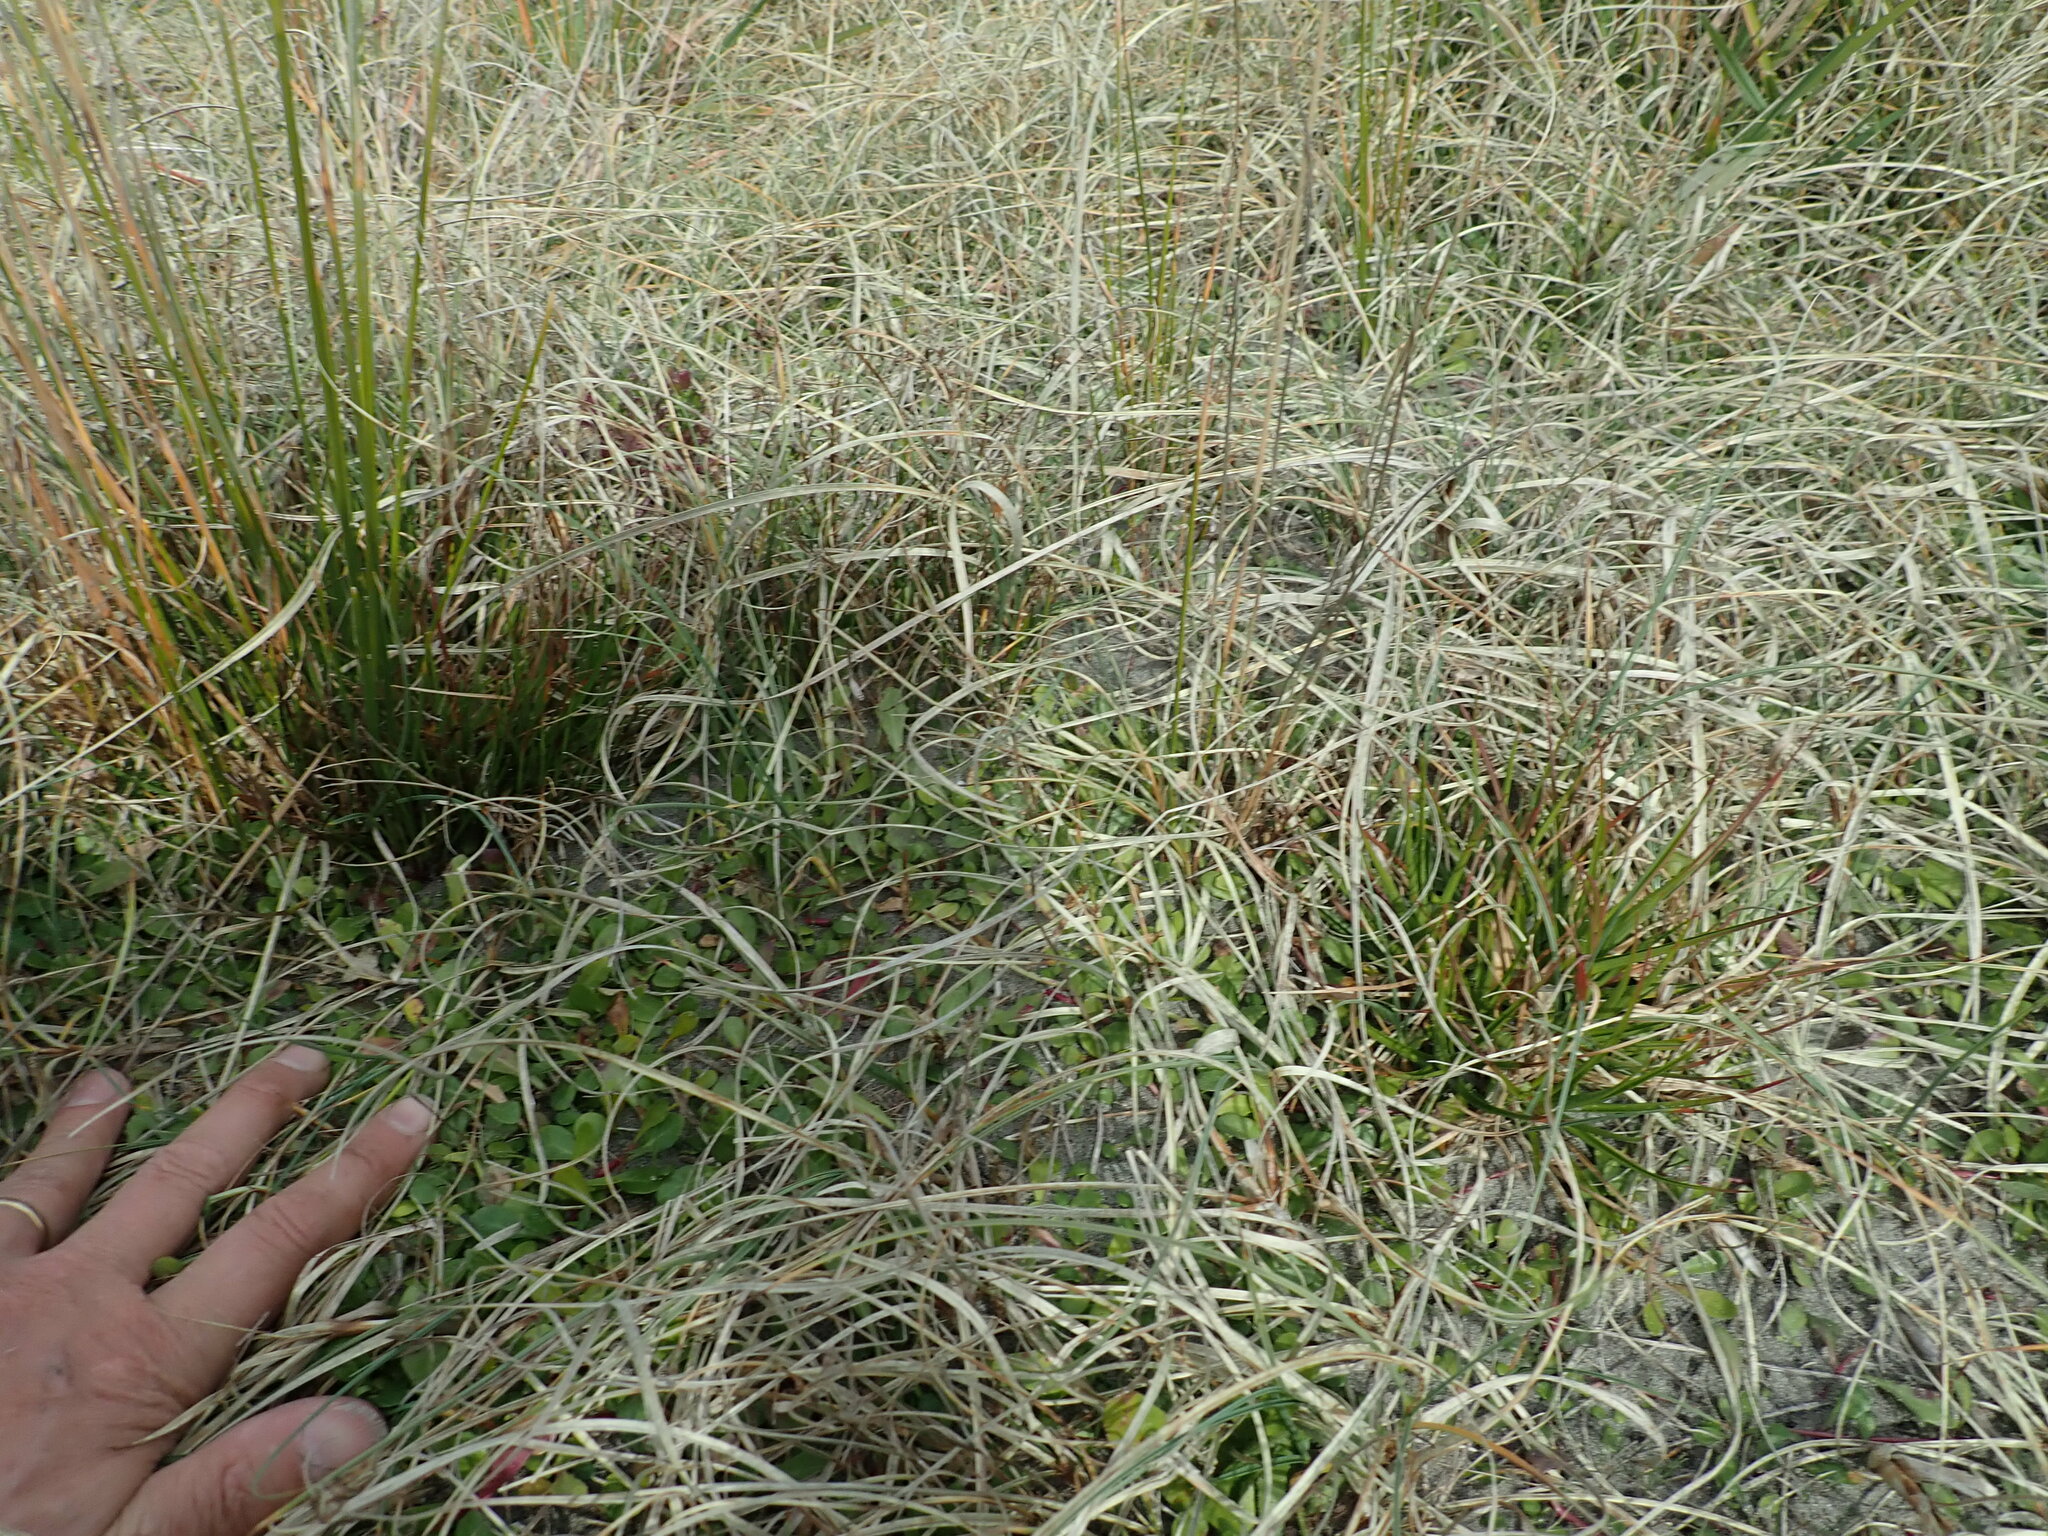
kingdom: Plantae
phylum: Tracheophyta
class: Liliopsida
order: Poales
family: Juncaceae
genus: Juncus
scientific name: Juncus caespiticius
